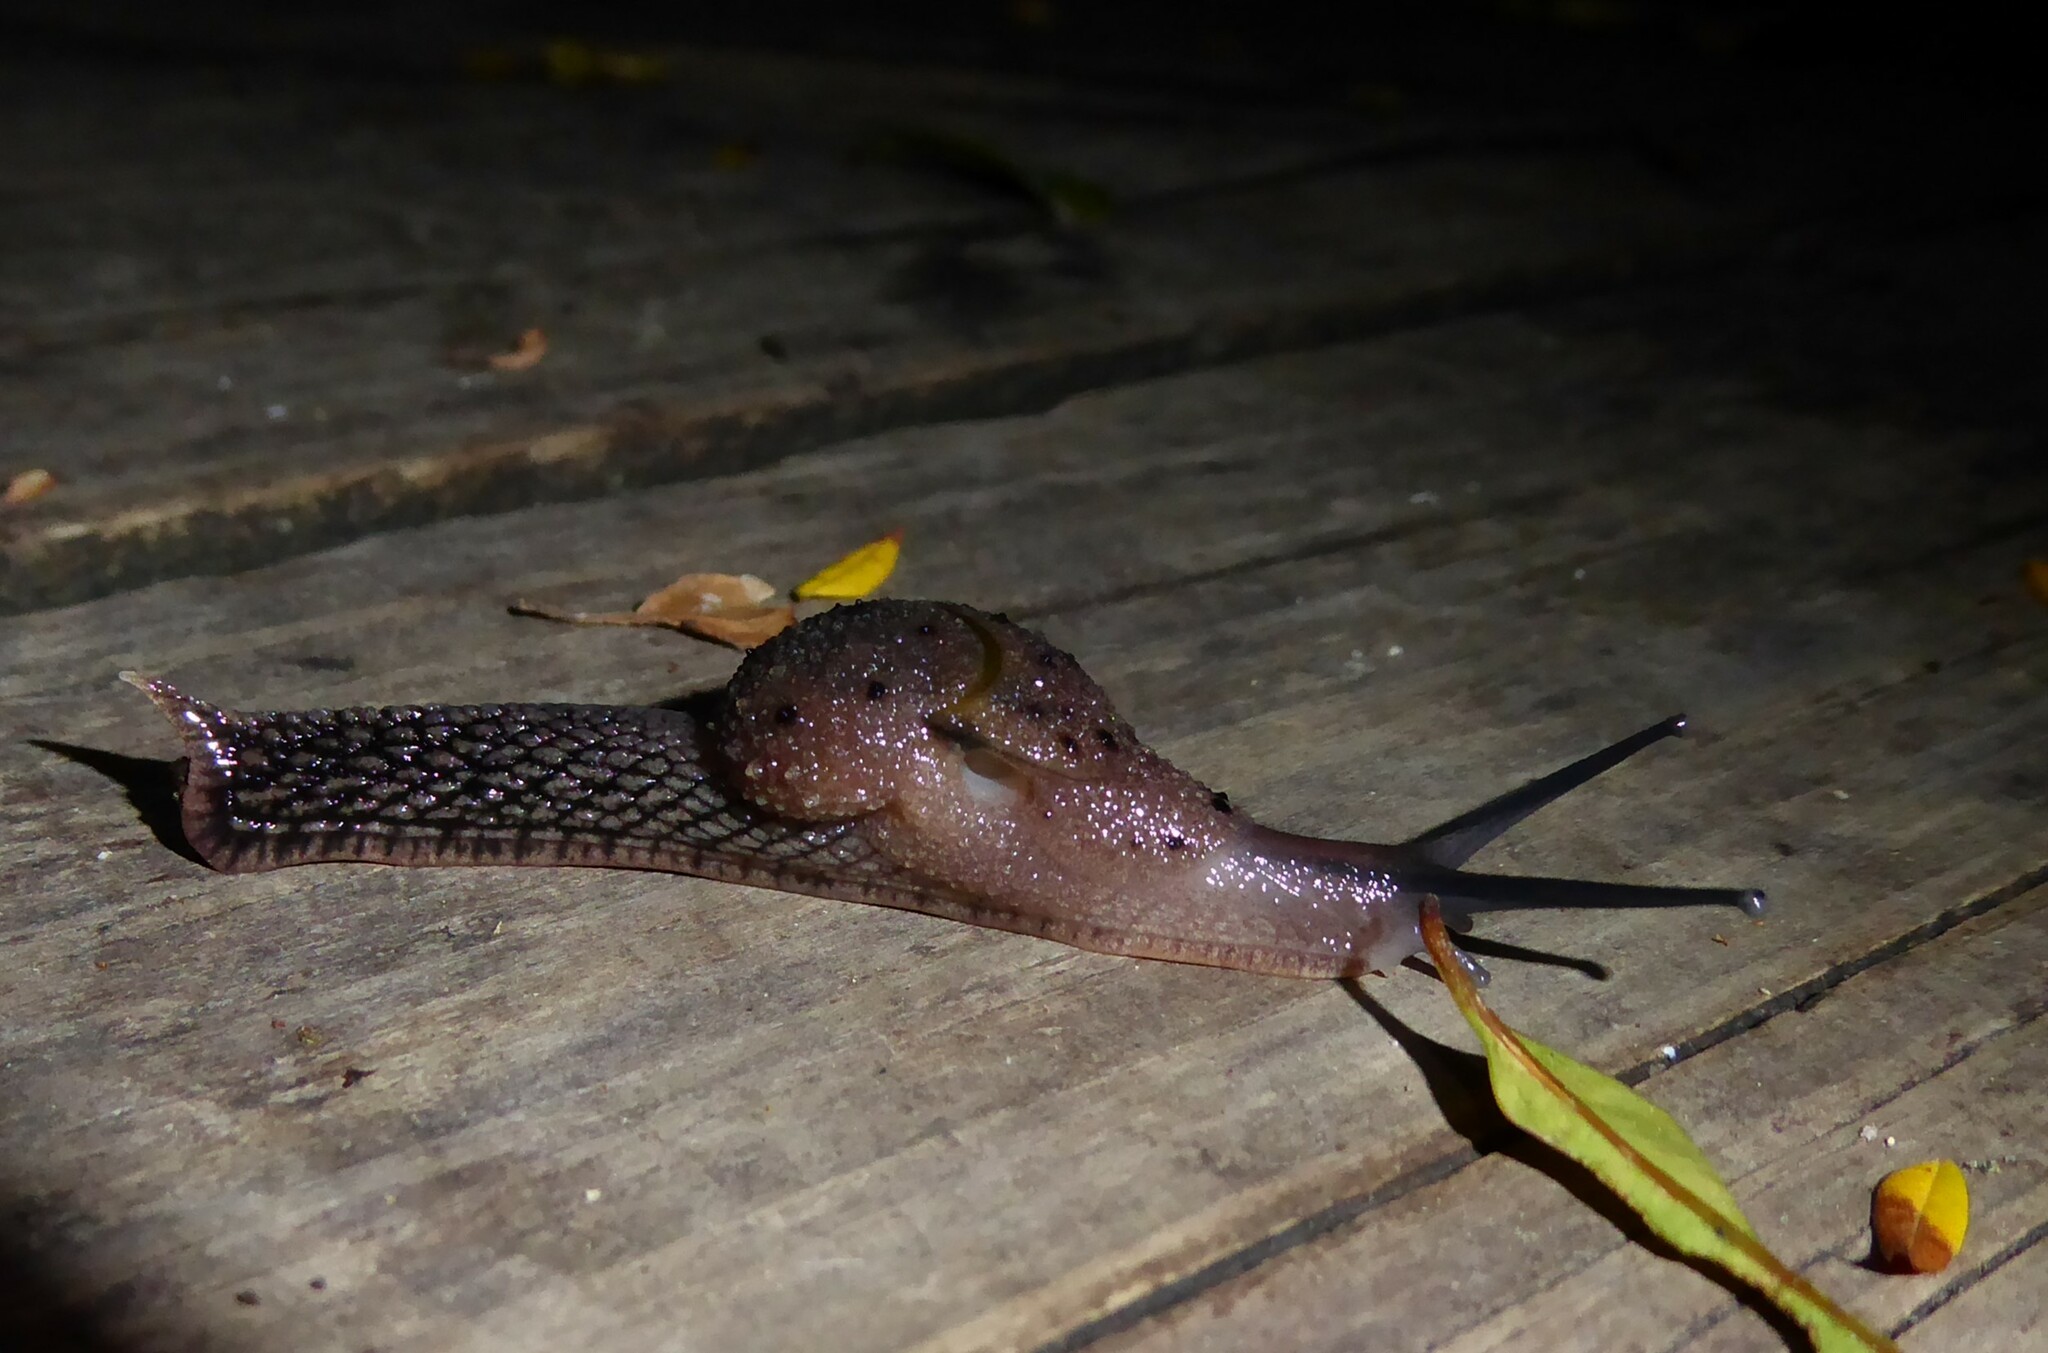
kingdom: Animalia
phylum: Mollusca
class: Gastropoda
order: Stylommatophora
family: Helicarionidae
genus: Stanisicarion
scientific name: Stanisicarion aquila
